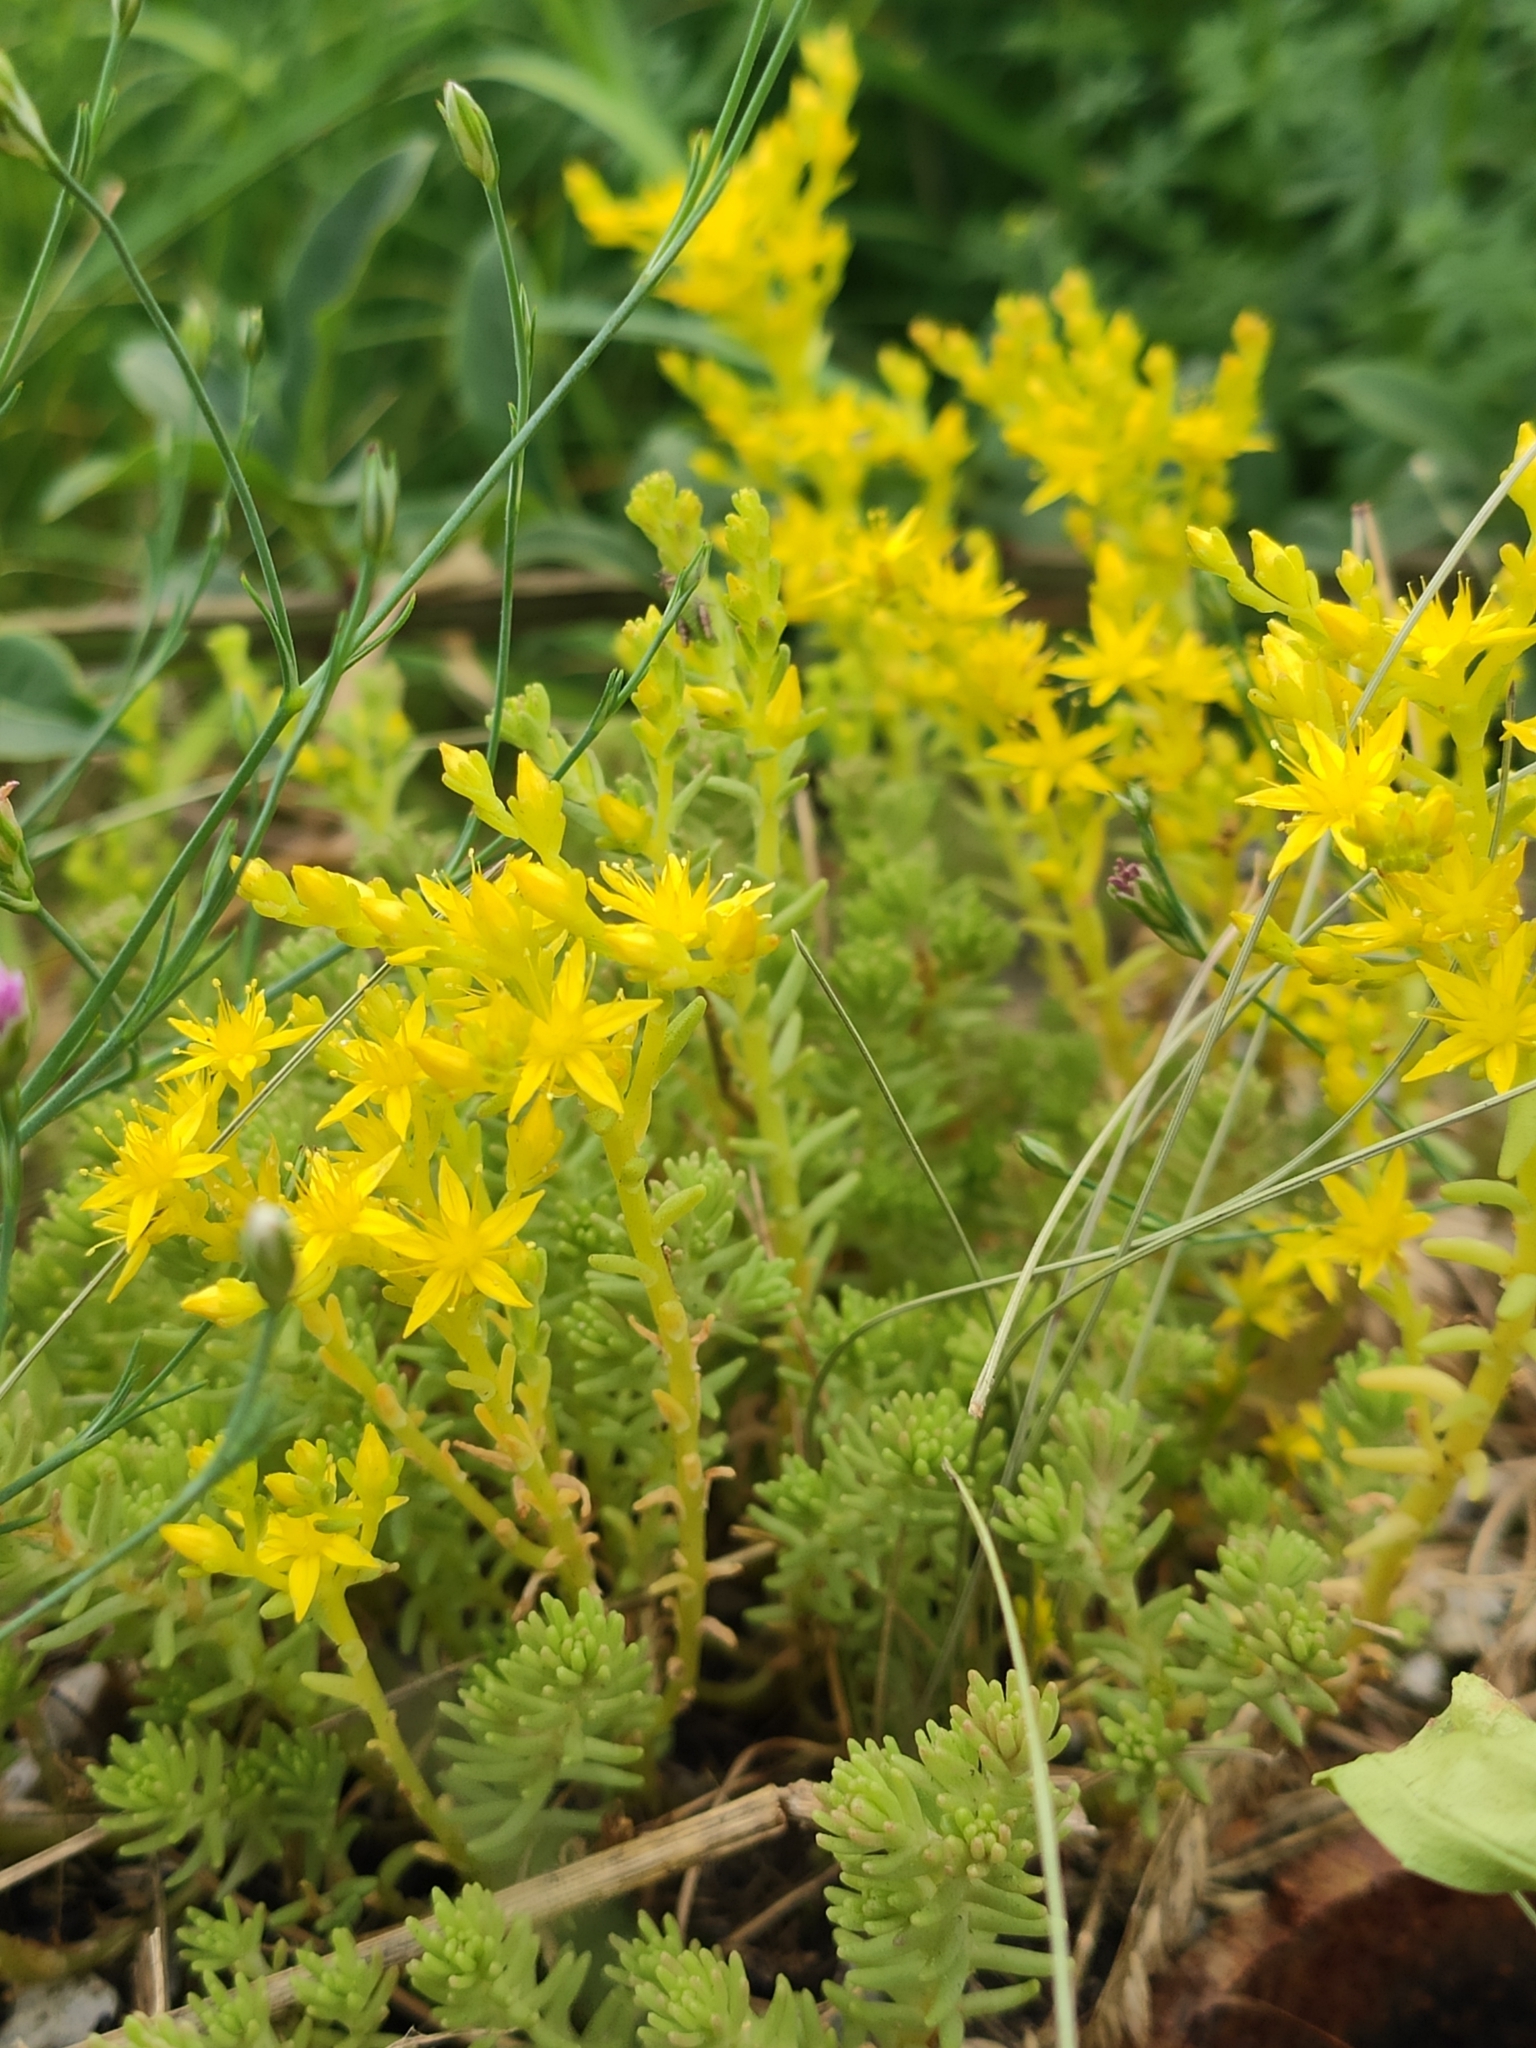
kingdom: Plantae
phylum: Tracheophyta
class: Magnoliopsida
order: Saxifragales
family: Crassulaceae
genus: Sedum
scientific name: Sedum sexangulare
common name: Tasteless stonecrop
